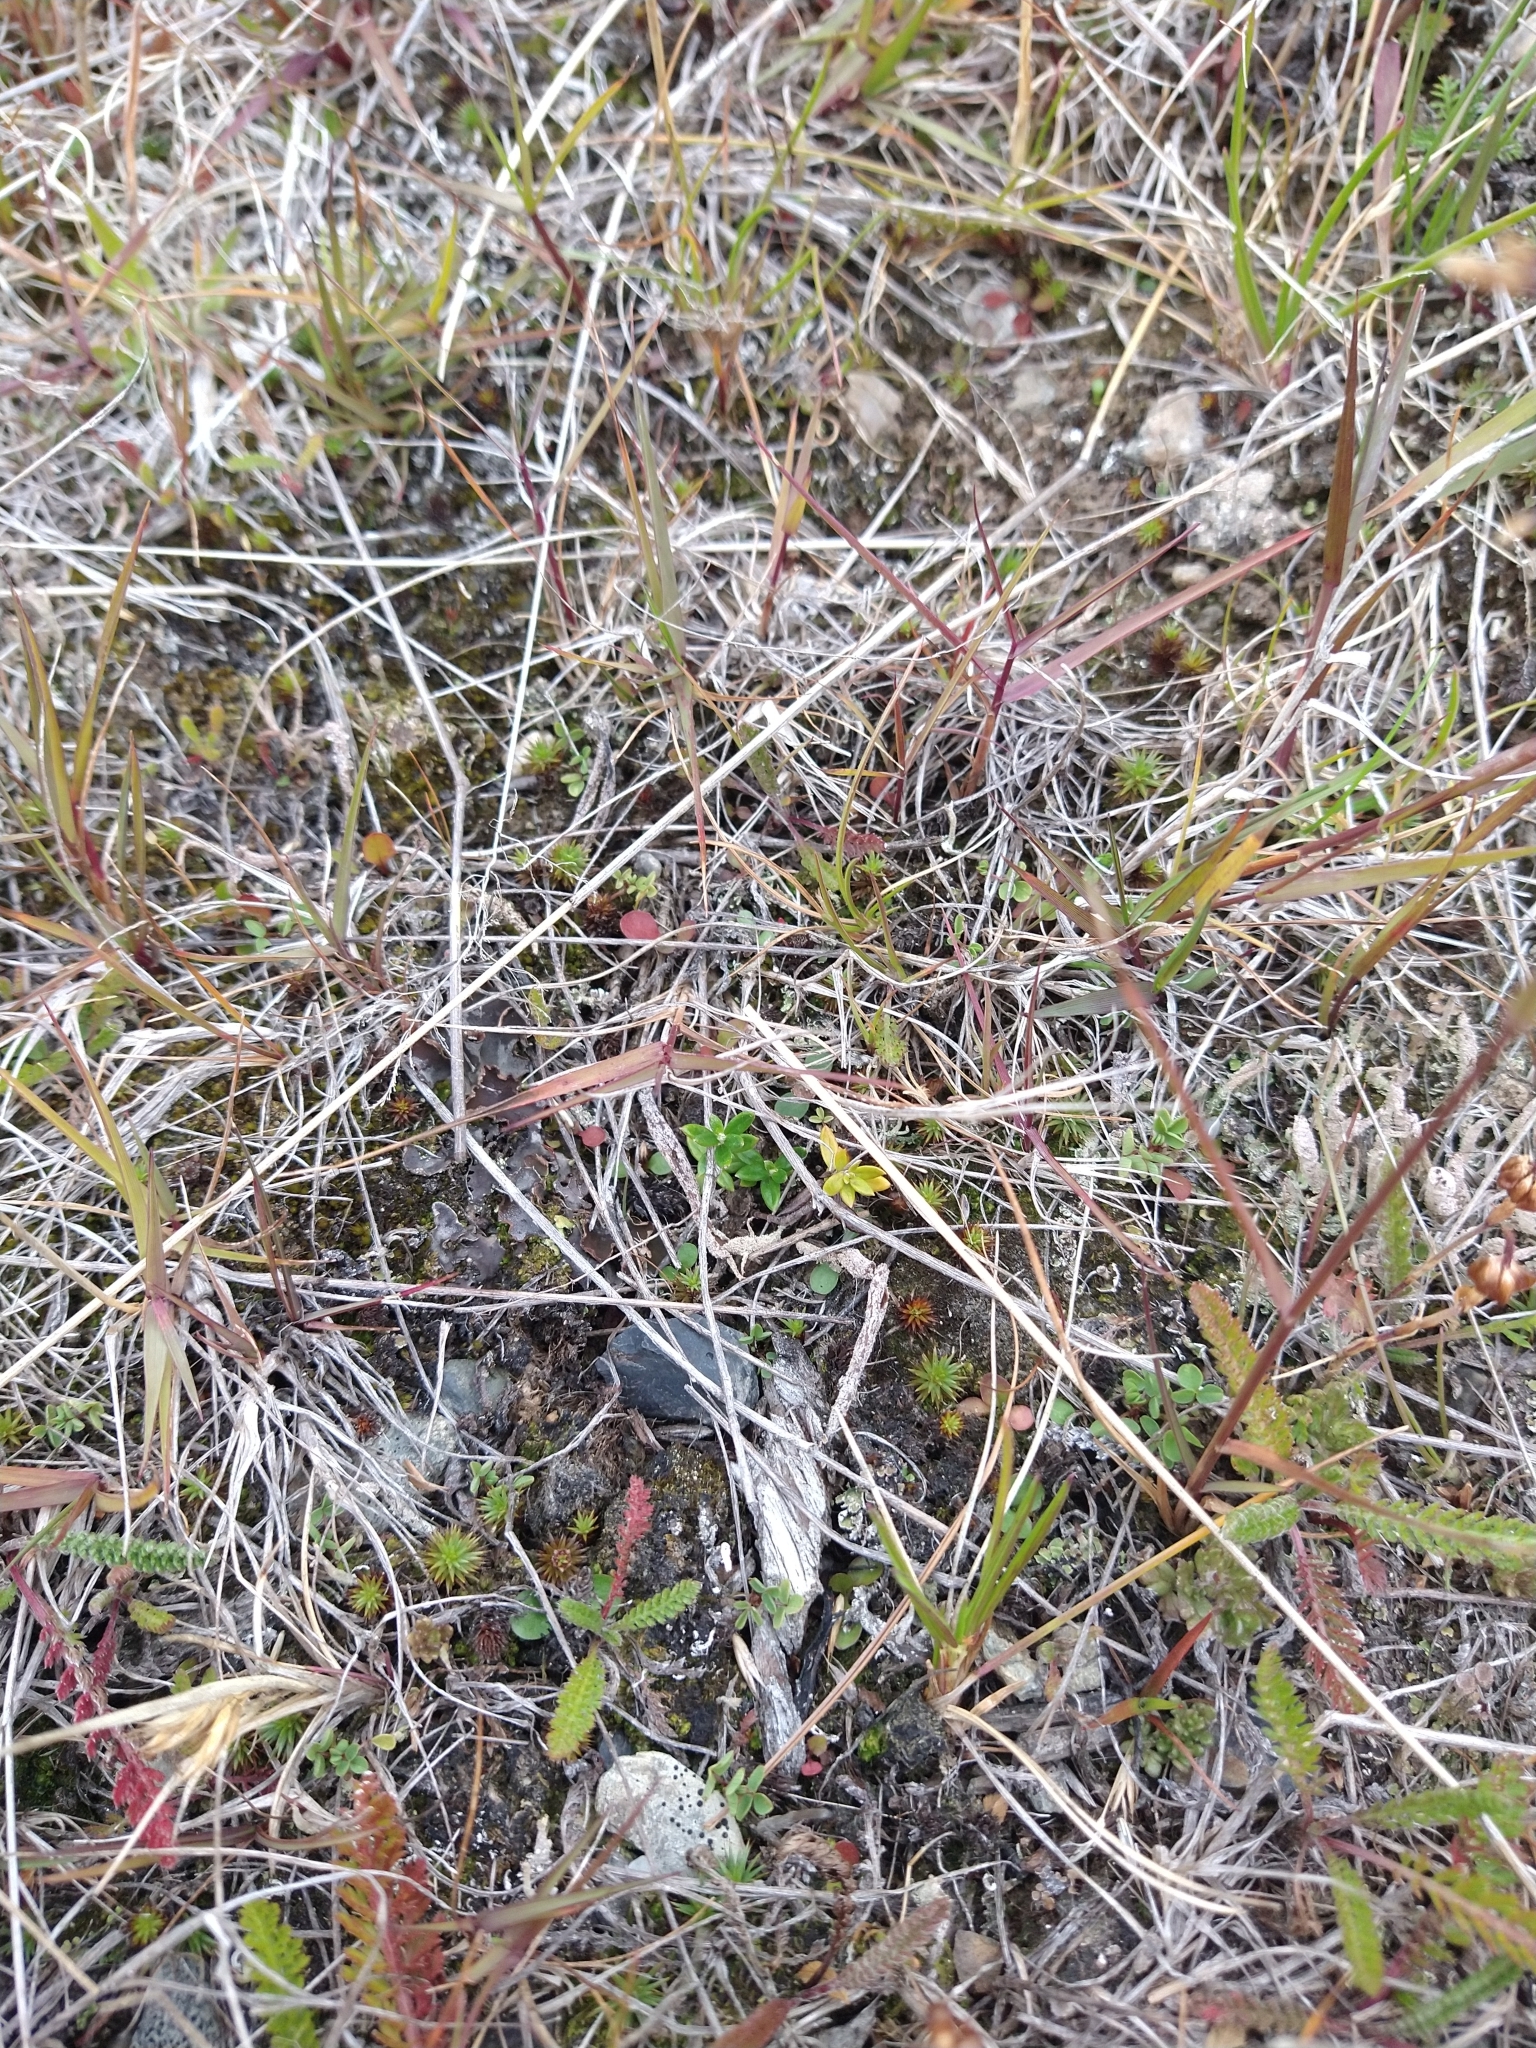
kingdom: Plantae
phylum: Tracheophyta
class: Magnoliopsida
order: Ericales
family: Ericaceae
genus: Gaultheria
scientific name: Gaultheria mucronata
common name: Prickly heath
